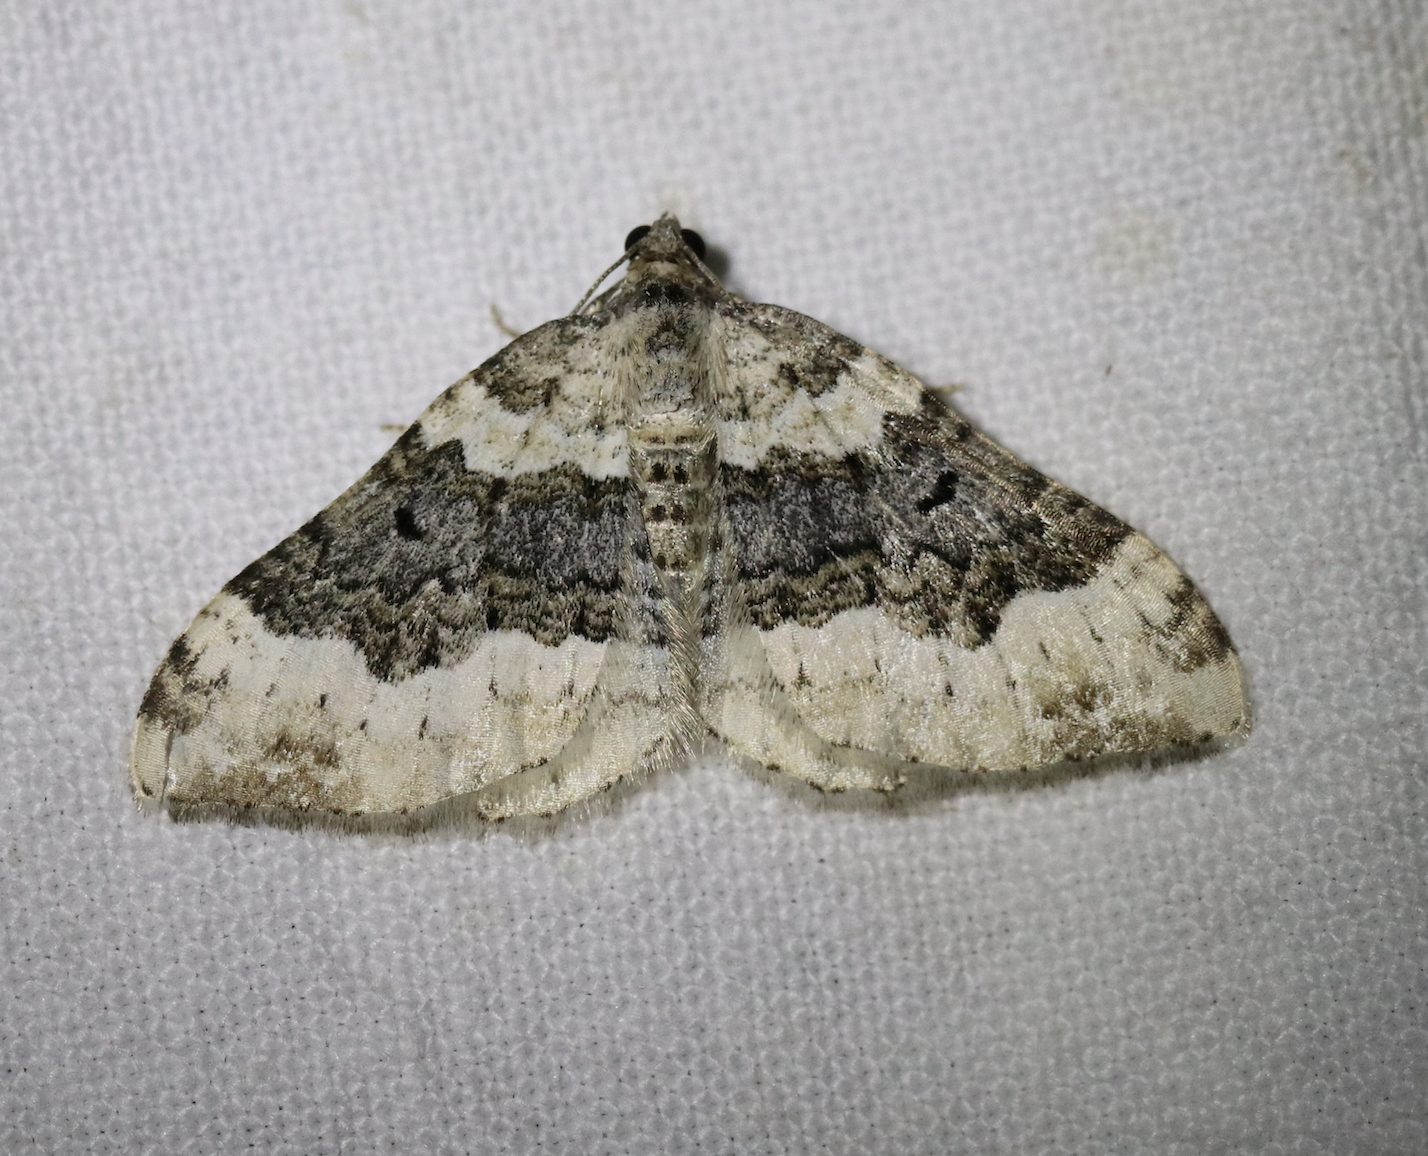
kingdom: Animalia
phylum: Arthropoda
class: Insecta
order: Lepidoptera
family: Geometridae
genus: Epirrhoe
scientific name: Epirrhoe galiata
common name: Galium carpet
